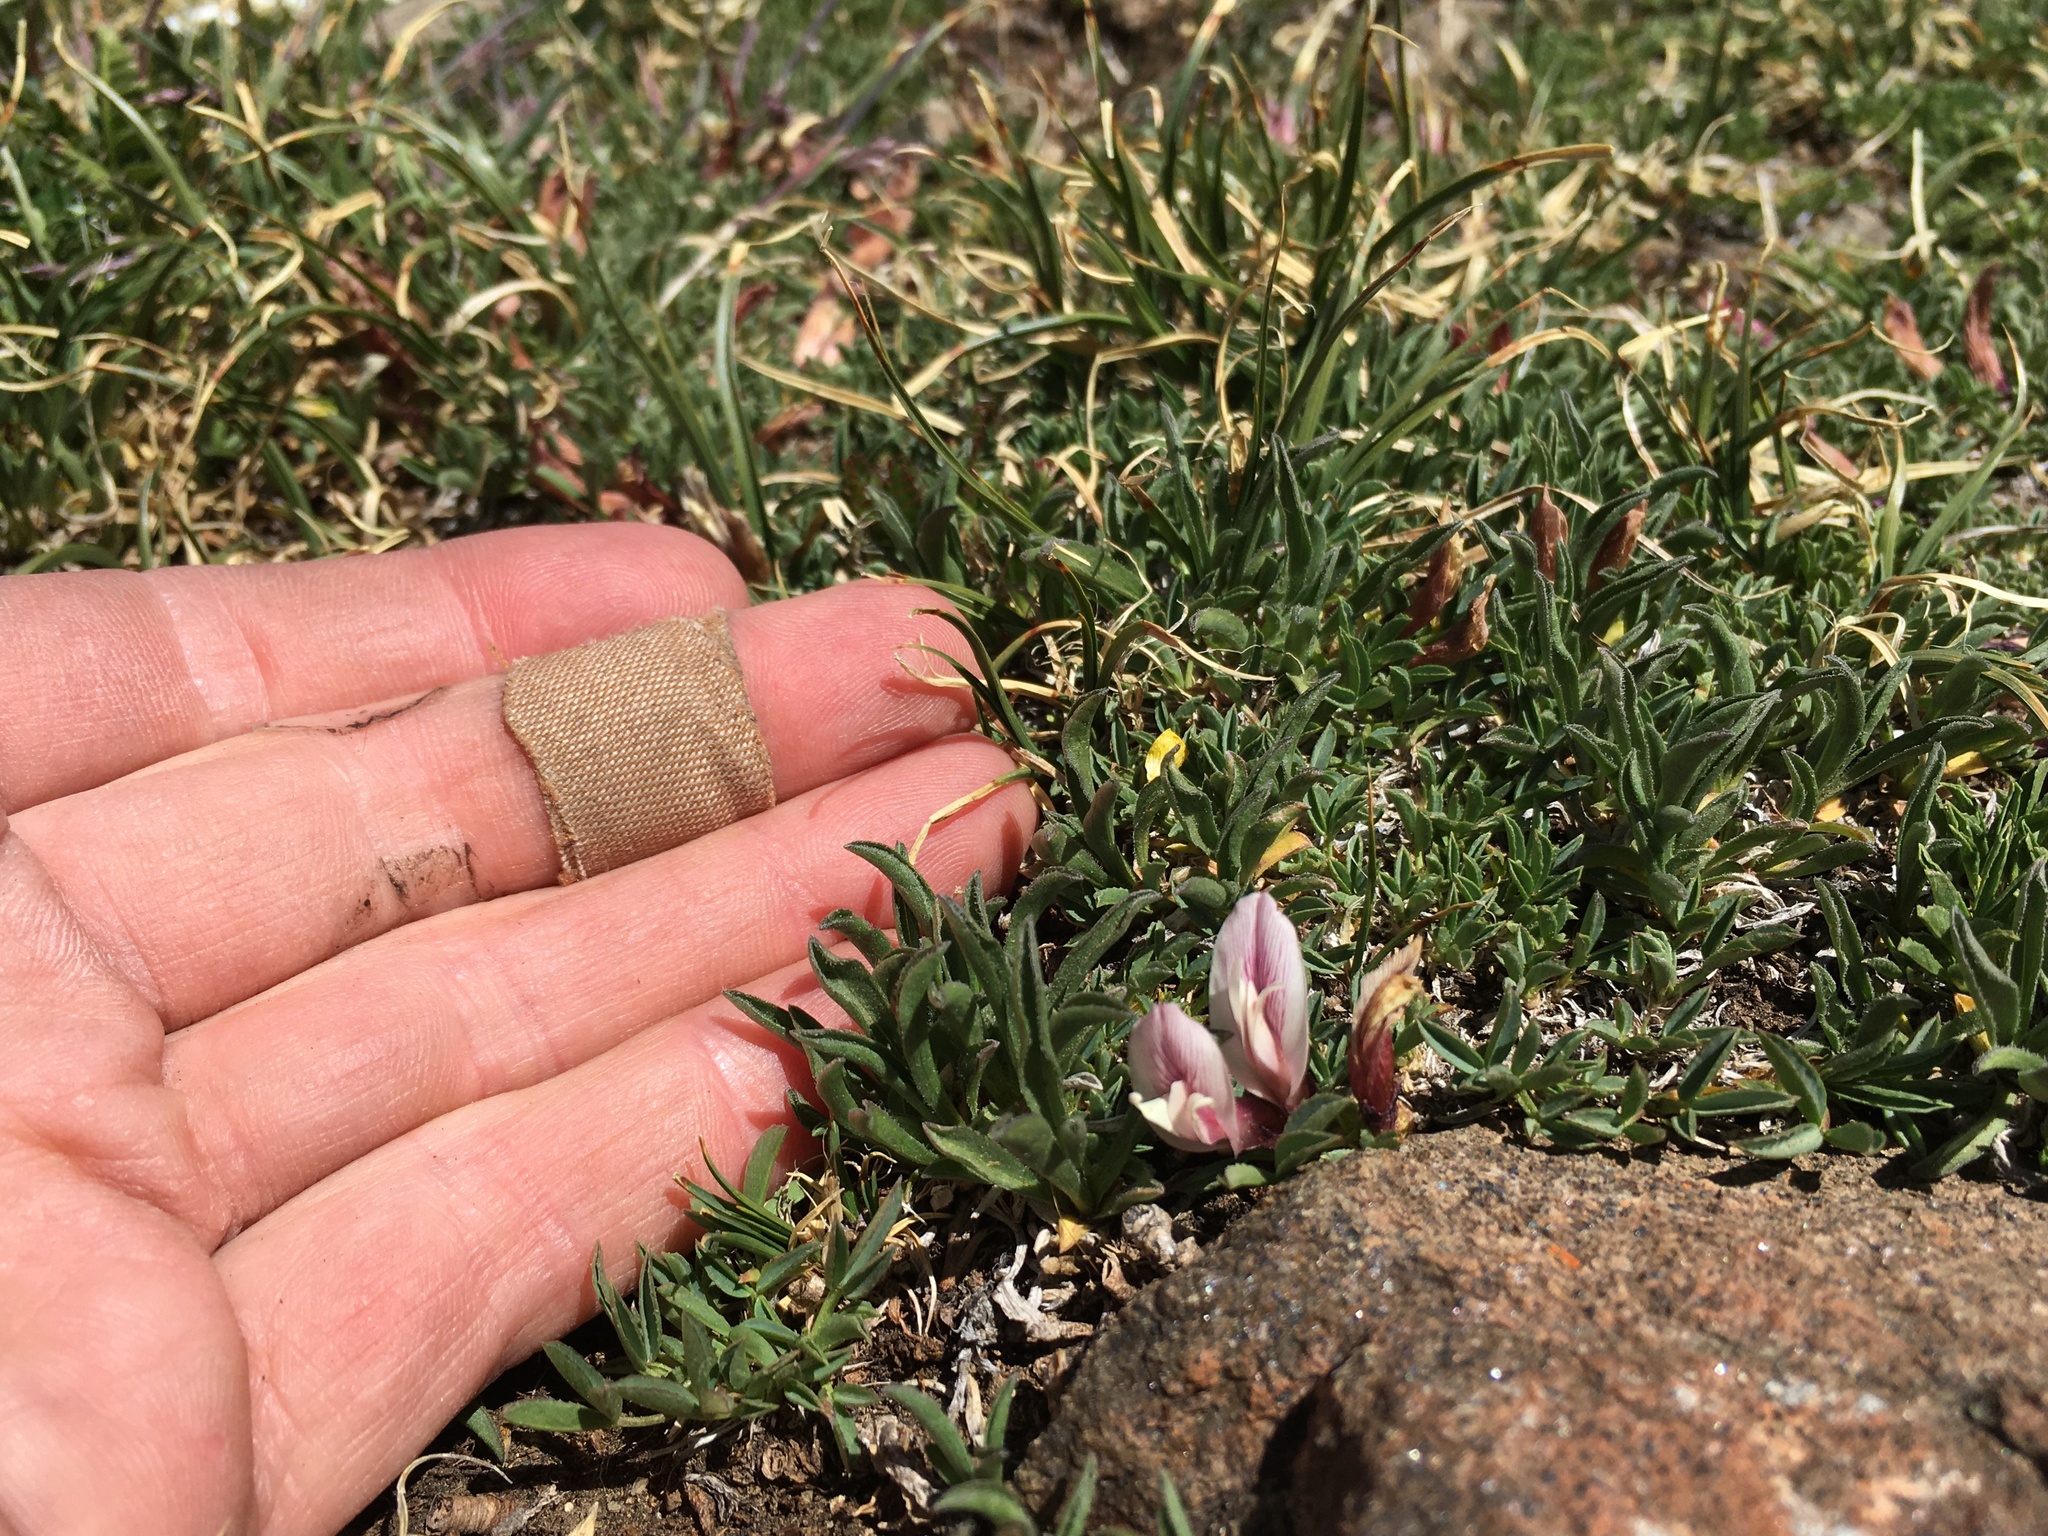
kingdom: Plantae
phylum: Tracheophyta
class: Magnoliopsida
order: Fabales
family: Fabaceae
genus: Trifolium
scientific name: Trifolium nanum
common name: Tundra clover
